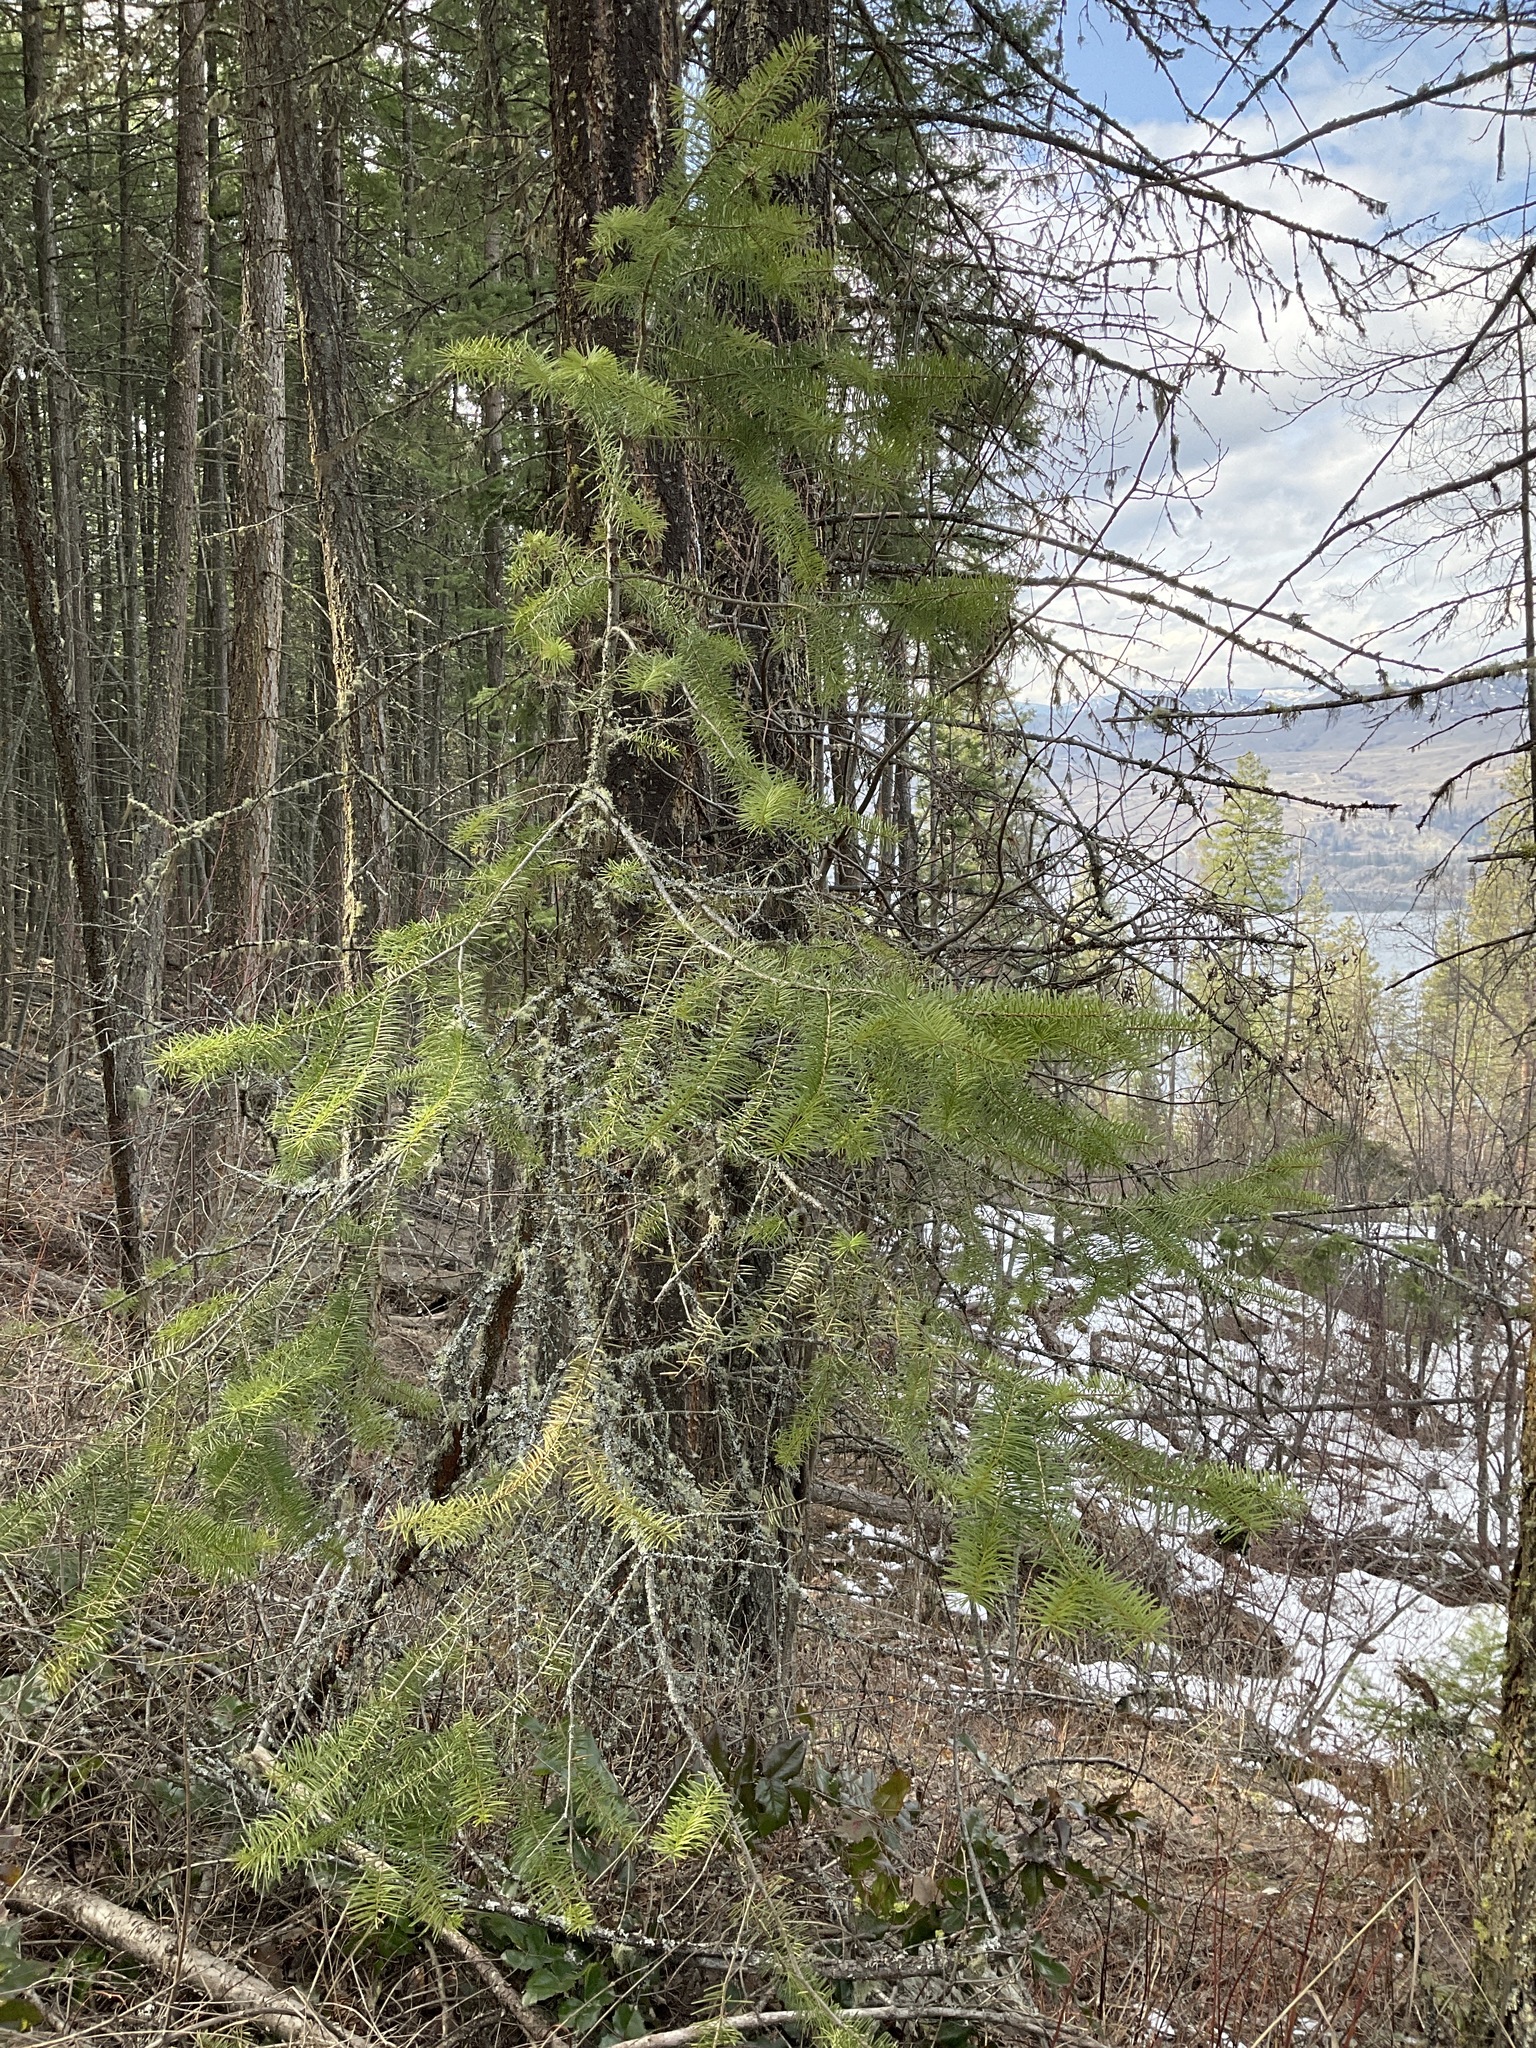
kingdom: Plantae
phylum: Tracheophyta
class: Pinopsida
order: Pinales
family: Pinaceae
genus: Pseudotsuga
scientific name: Pseudotsuga menziesii
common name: Douglas fir
